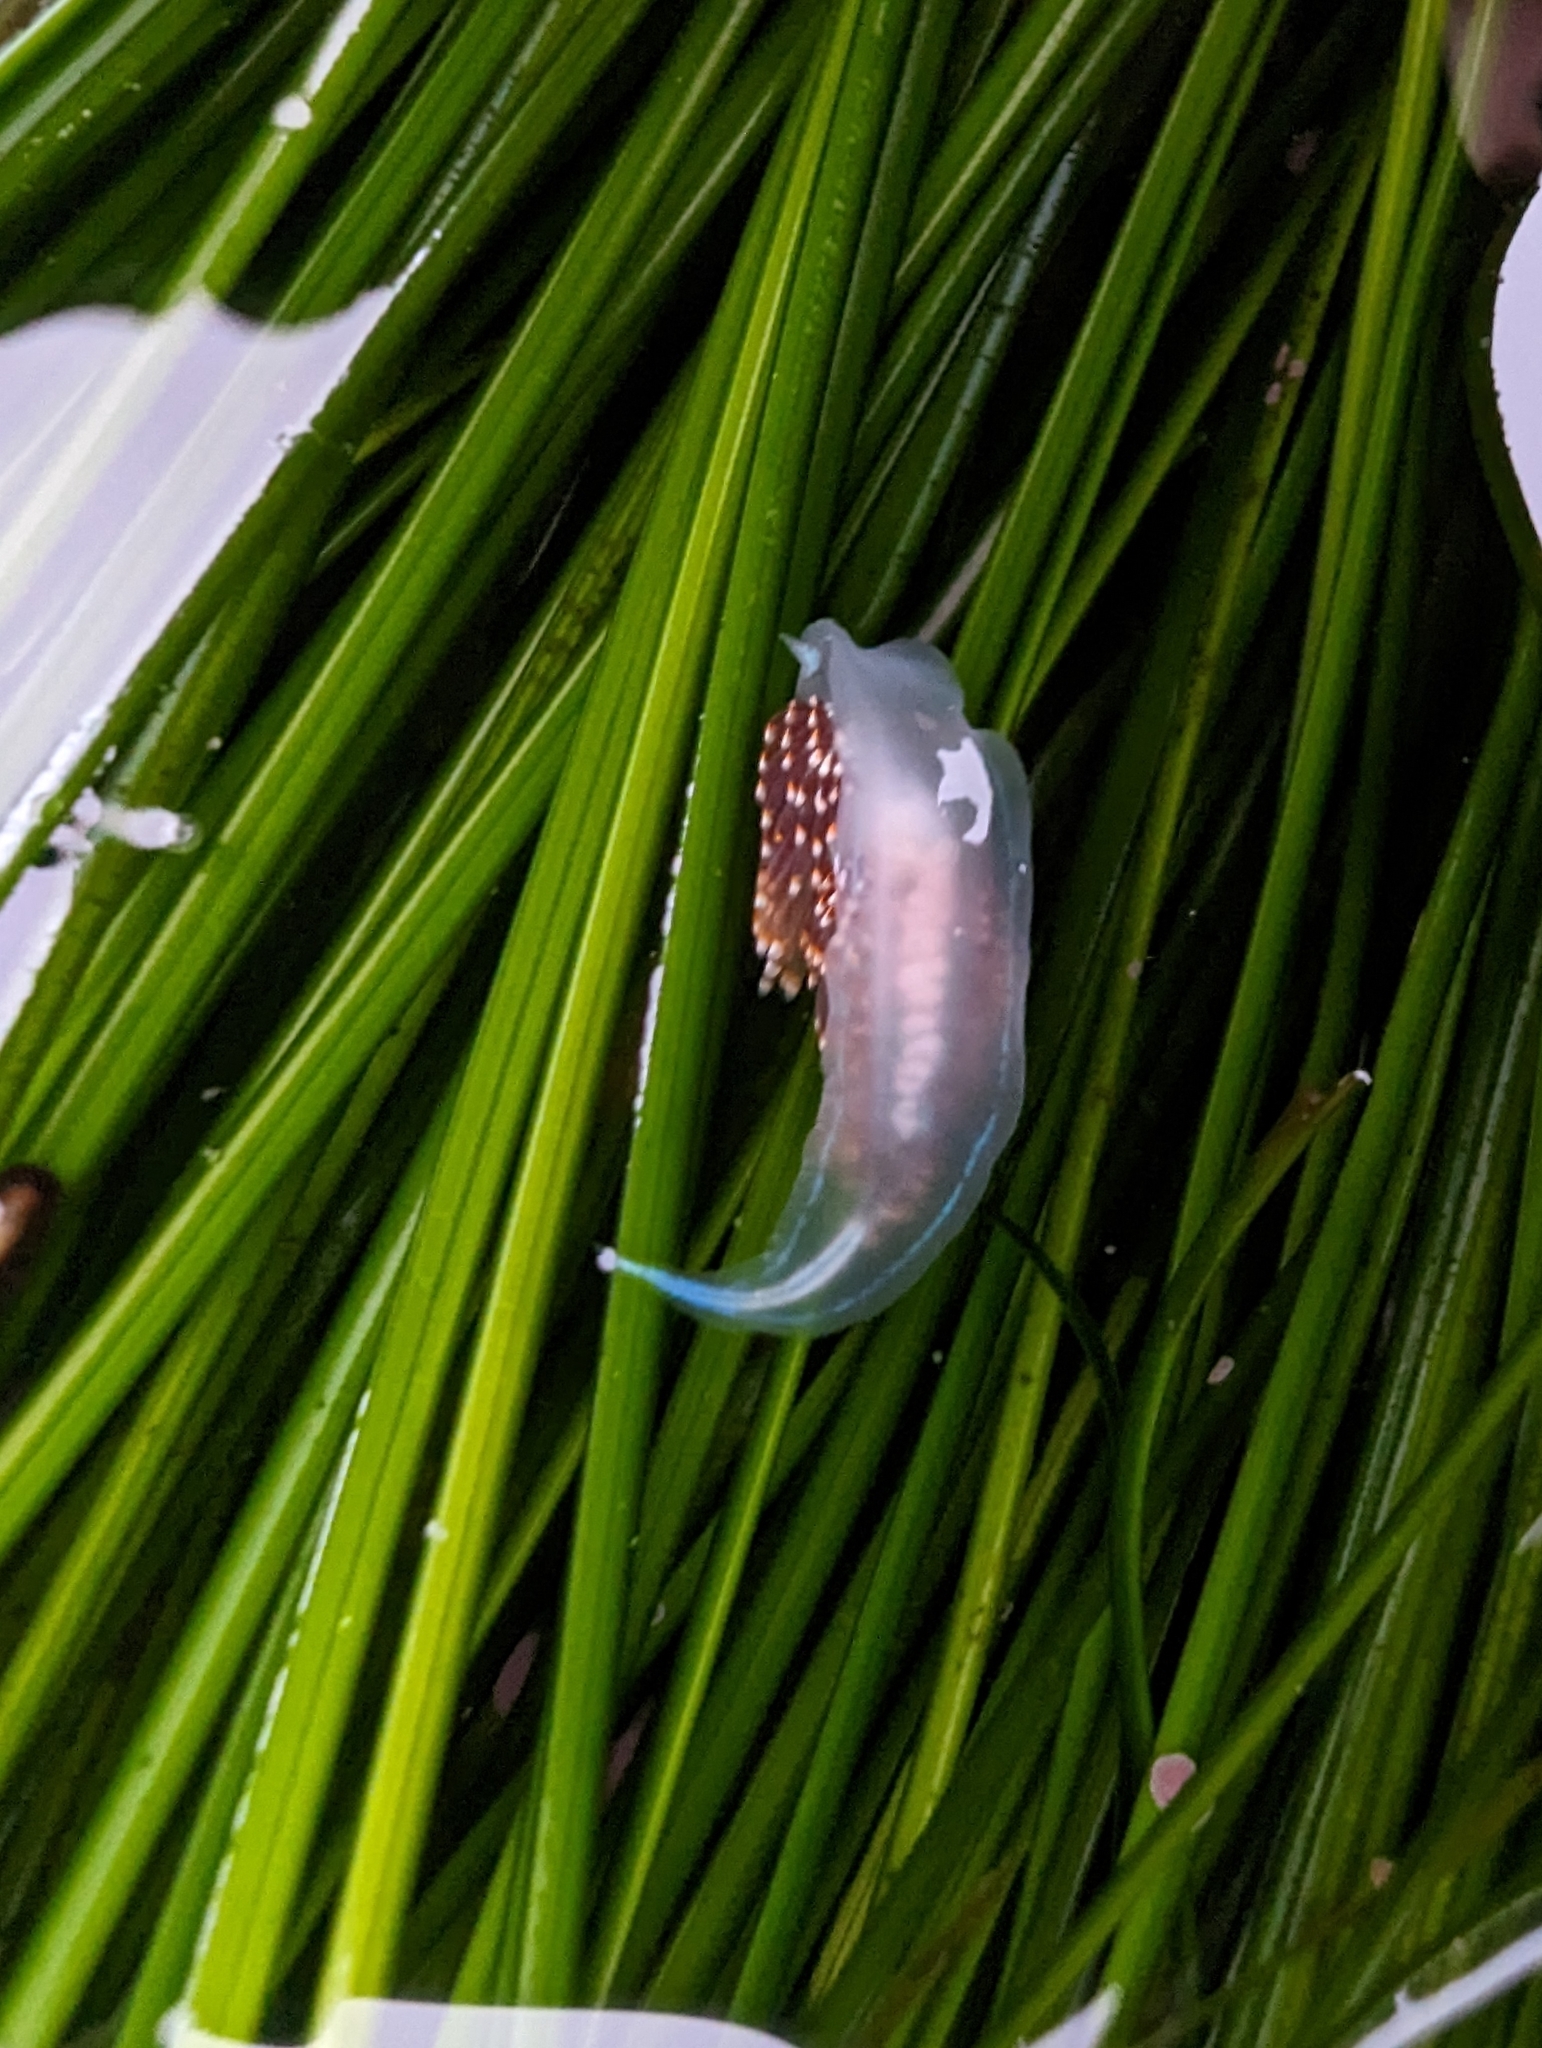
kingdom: Animalia
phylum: Mollusca
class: Gastropoda
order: Nudibranchia
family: Myrrhinidae
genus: Hermissenda
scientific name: Hermissenda opalescens
